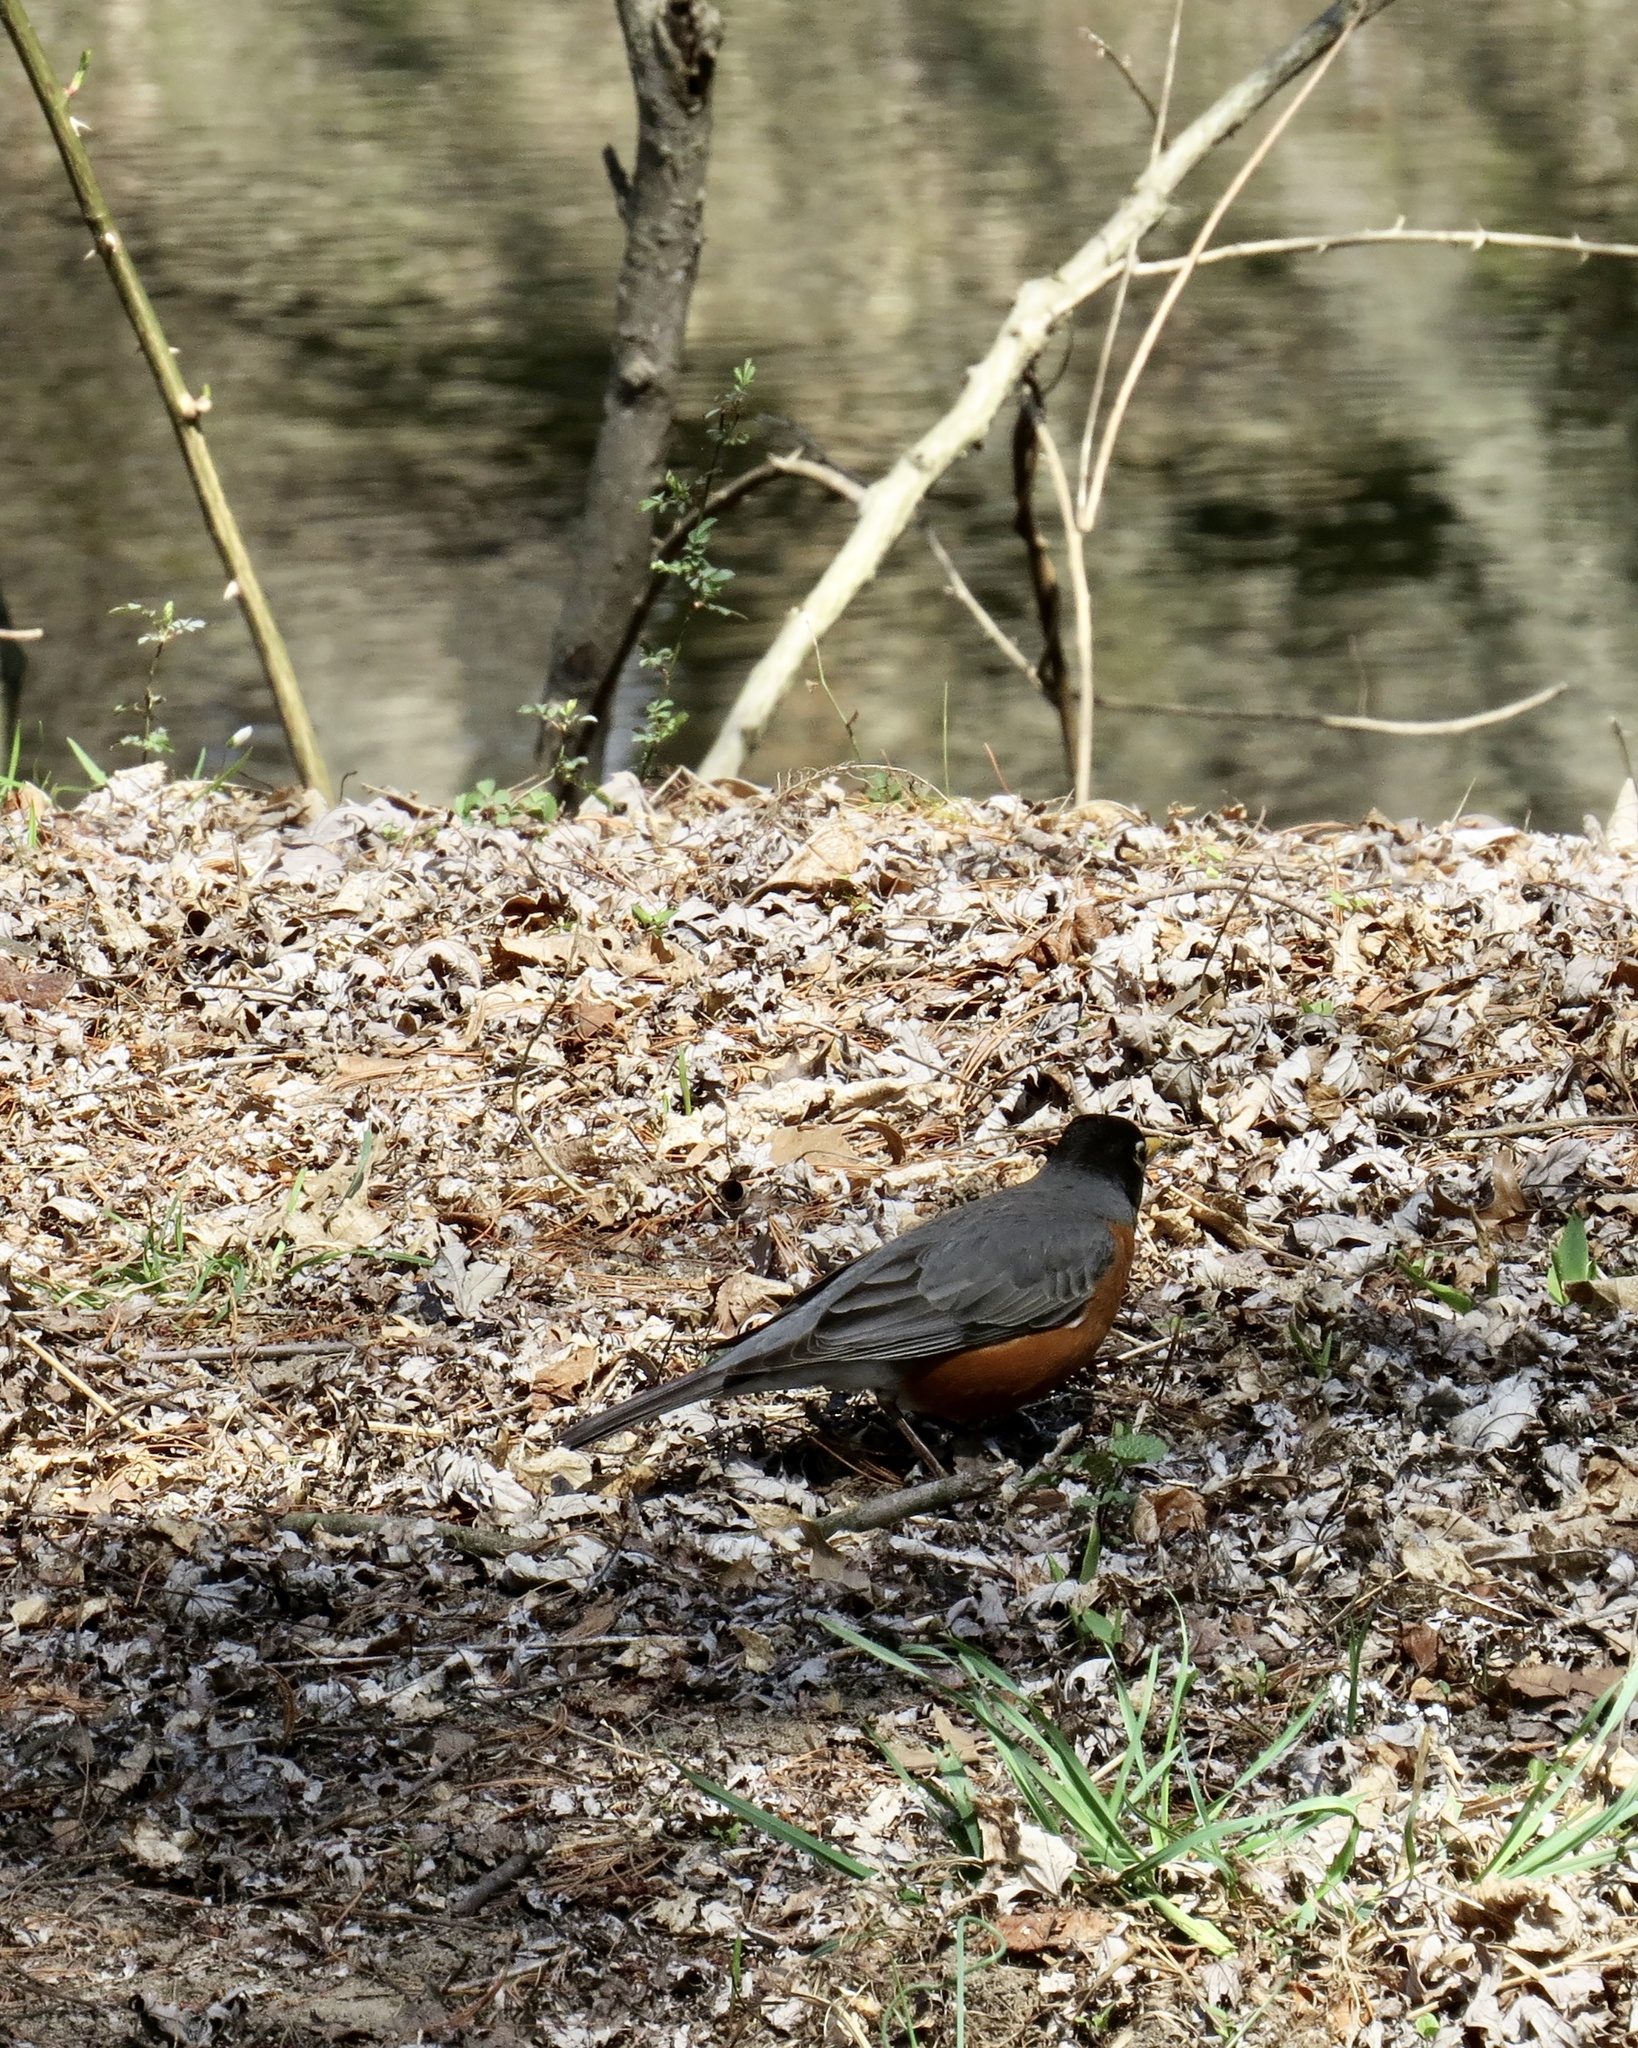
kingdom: Animalia
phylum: Chordata
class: Aves
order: Passeriformes
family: Turdidae
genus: Turdus
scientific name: Turdus migratorius
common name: American robin
